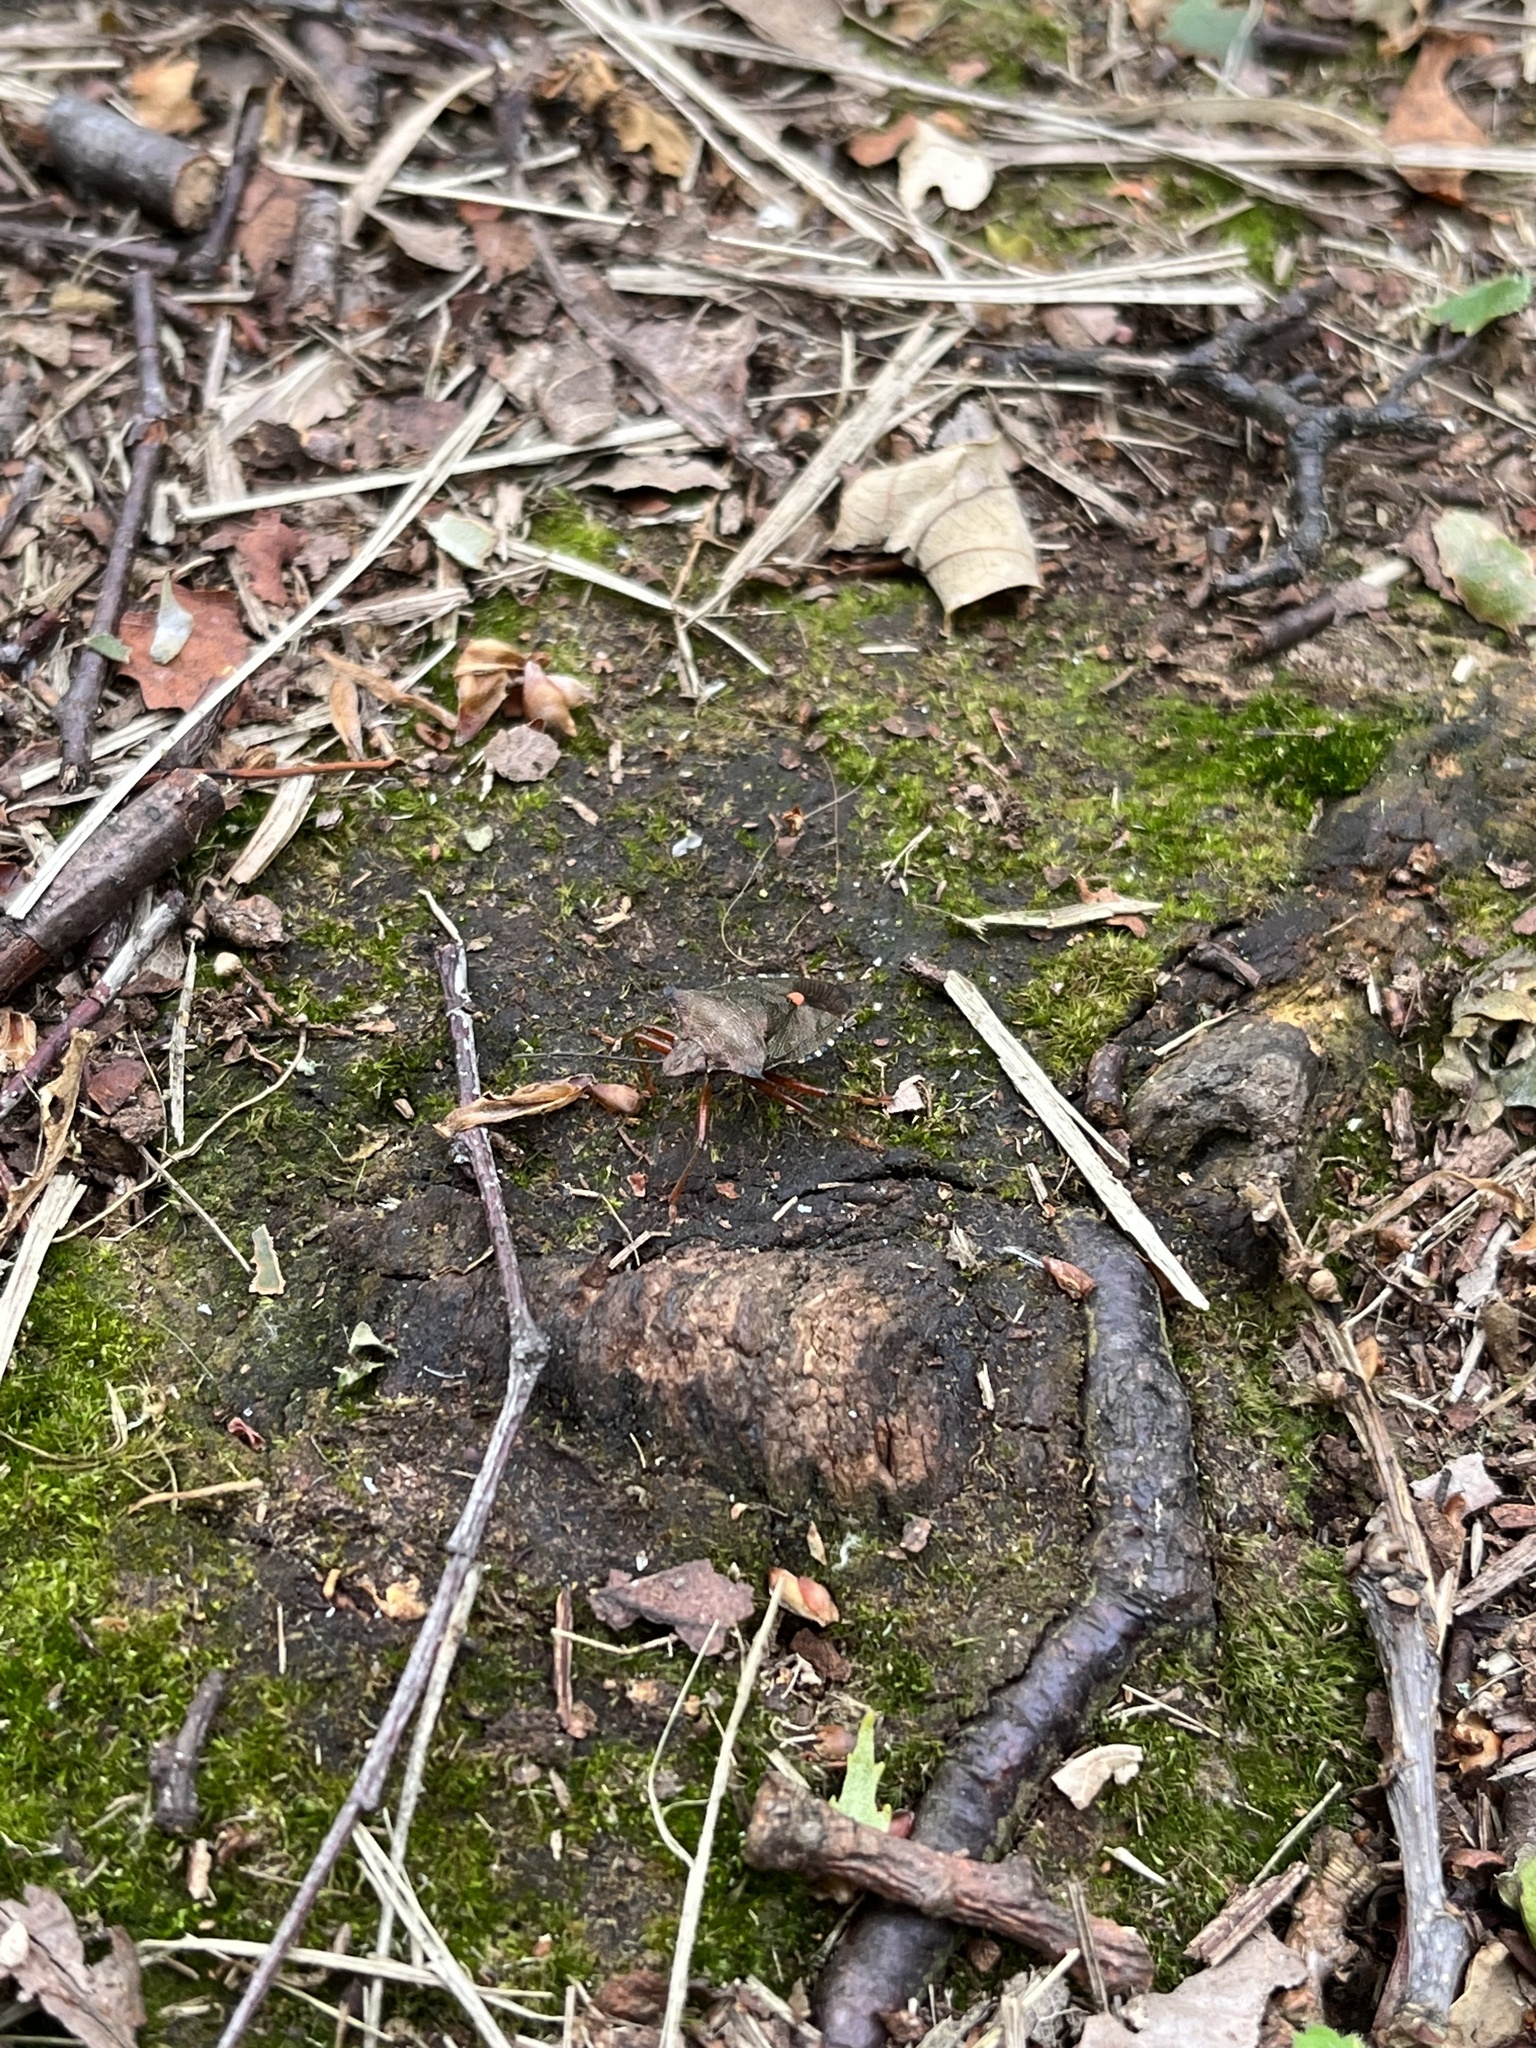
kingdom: Animalia
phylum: Arthropoda
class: Insecta
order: Hemiptera
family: Pentatomidae
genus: Pentatoma
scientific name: Pentatoma rufipes
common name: Forest bug
